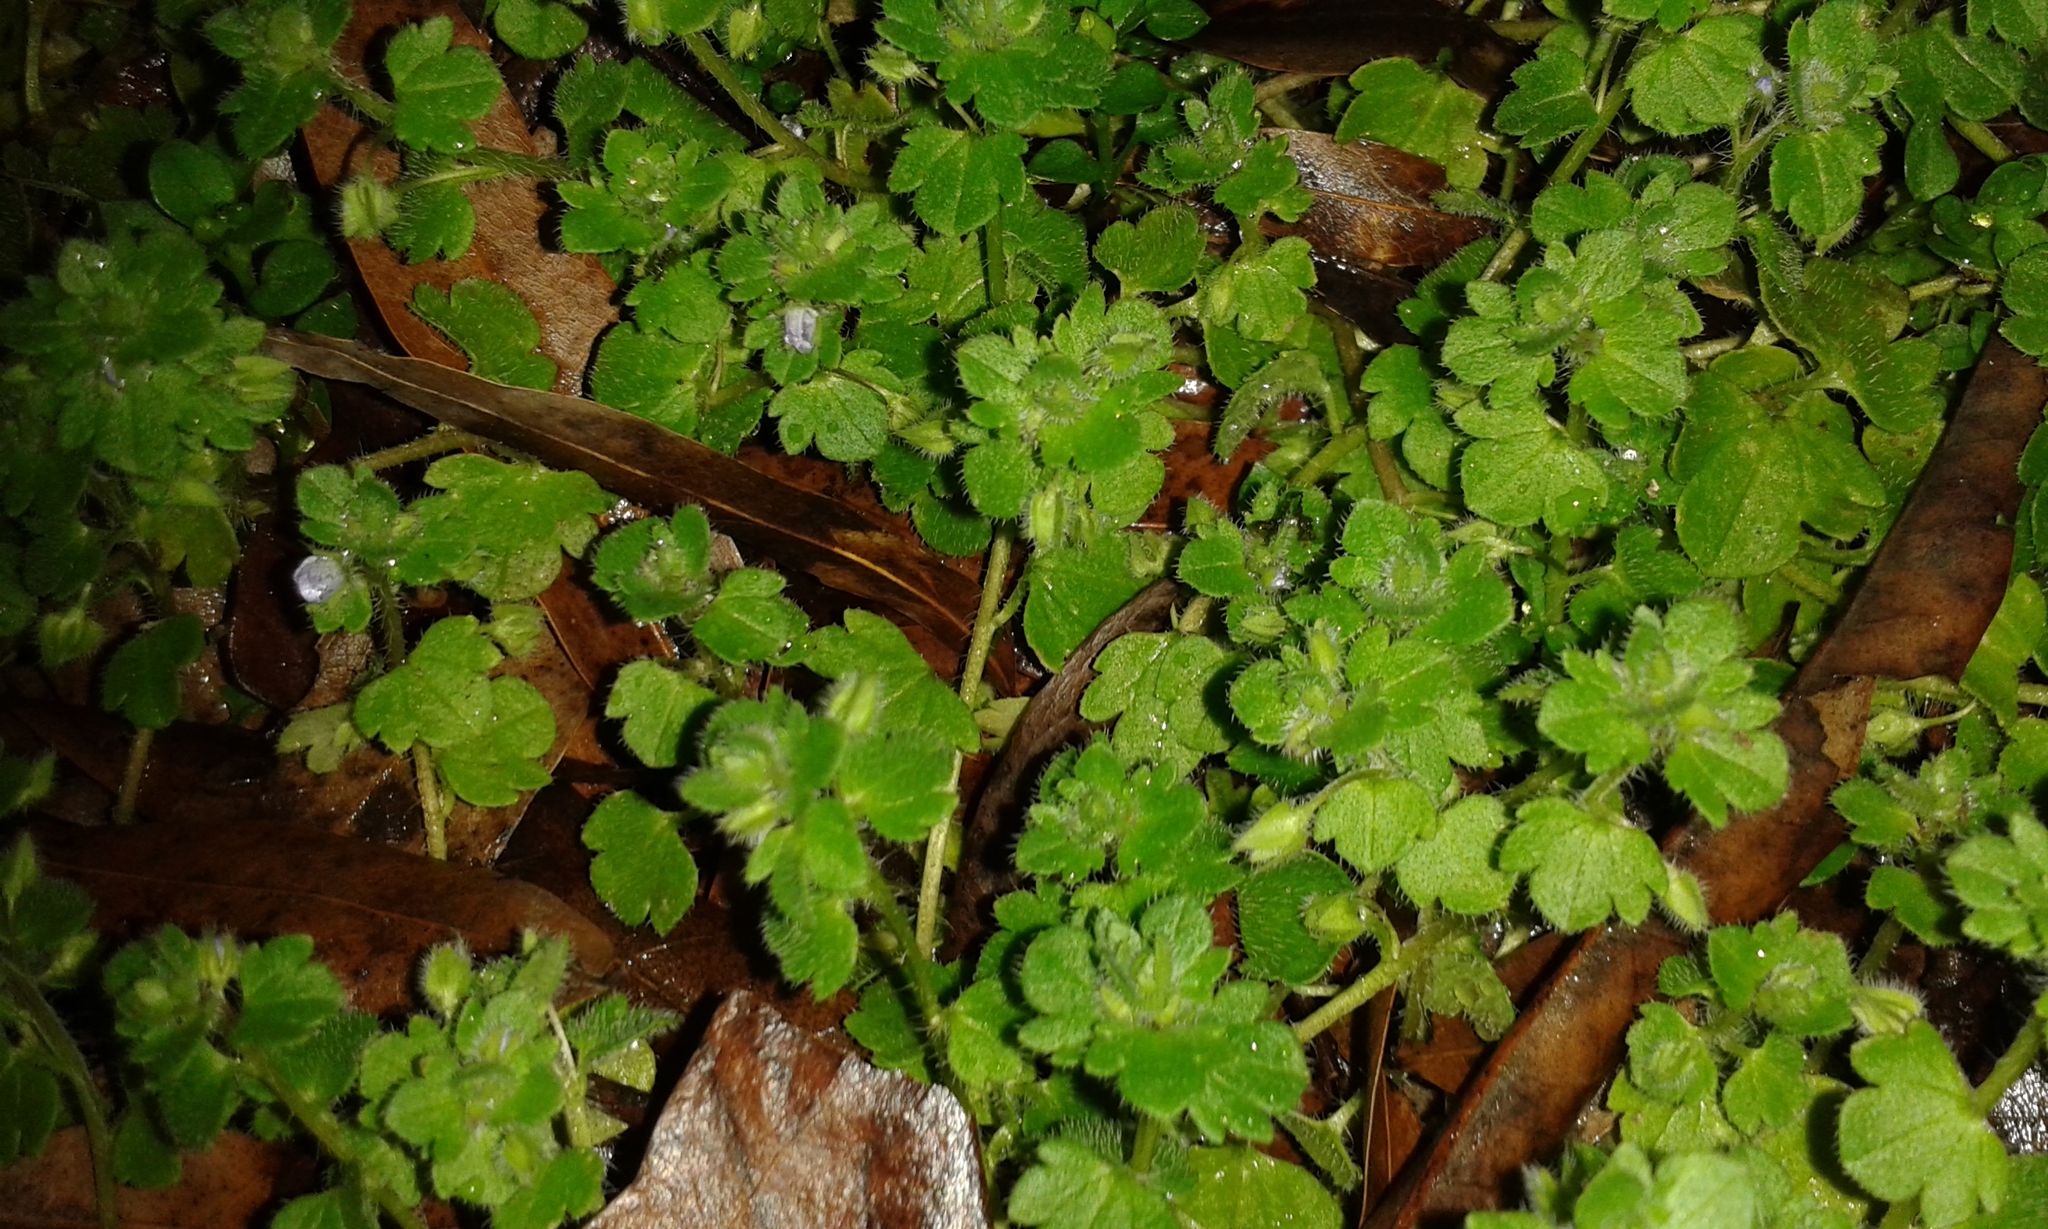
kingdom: Plantae
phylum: Tracheophyta
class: Magnoliopsida
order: Lamiales
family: Plantaginaceae
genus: Veronica
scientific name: Veronica hederifolia
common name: Ivy-leaved speedwell
